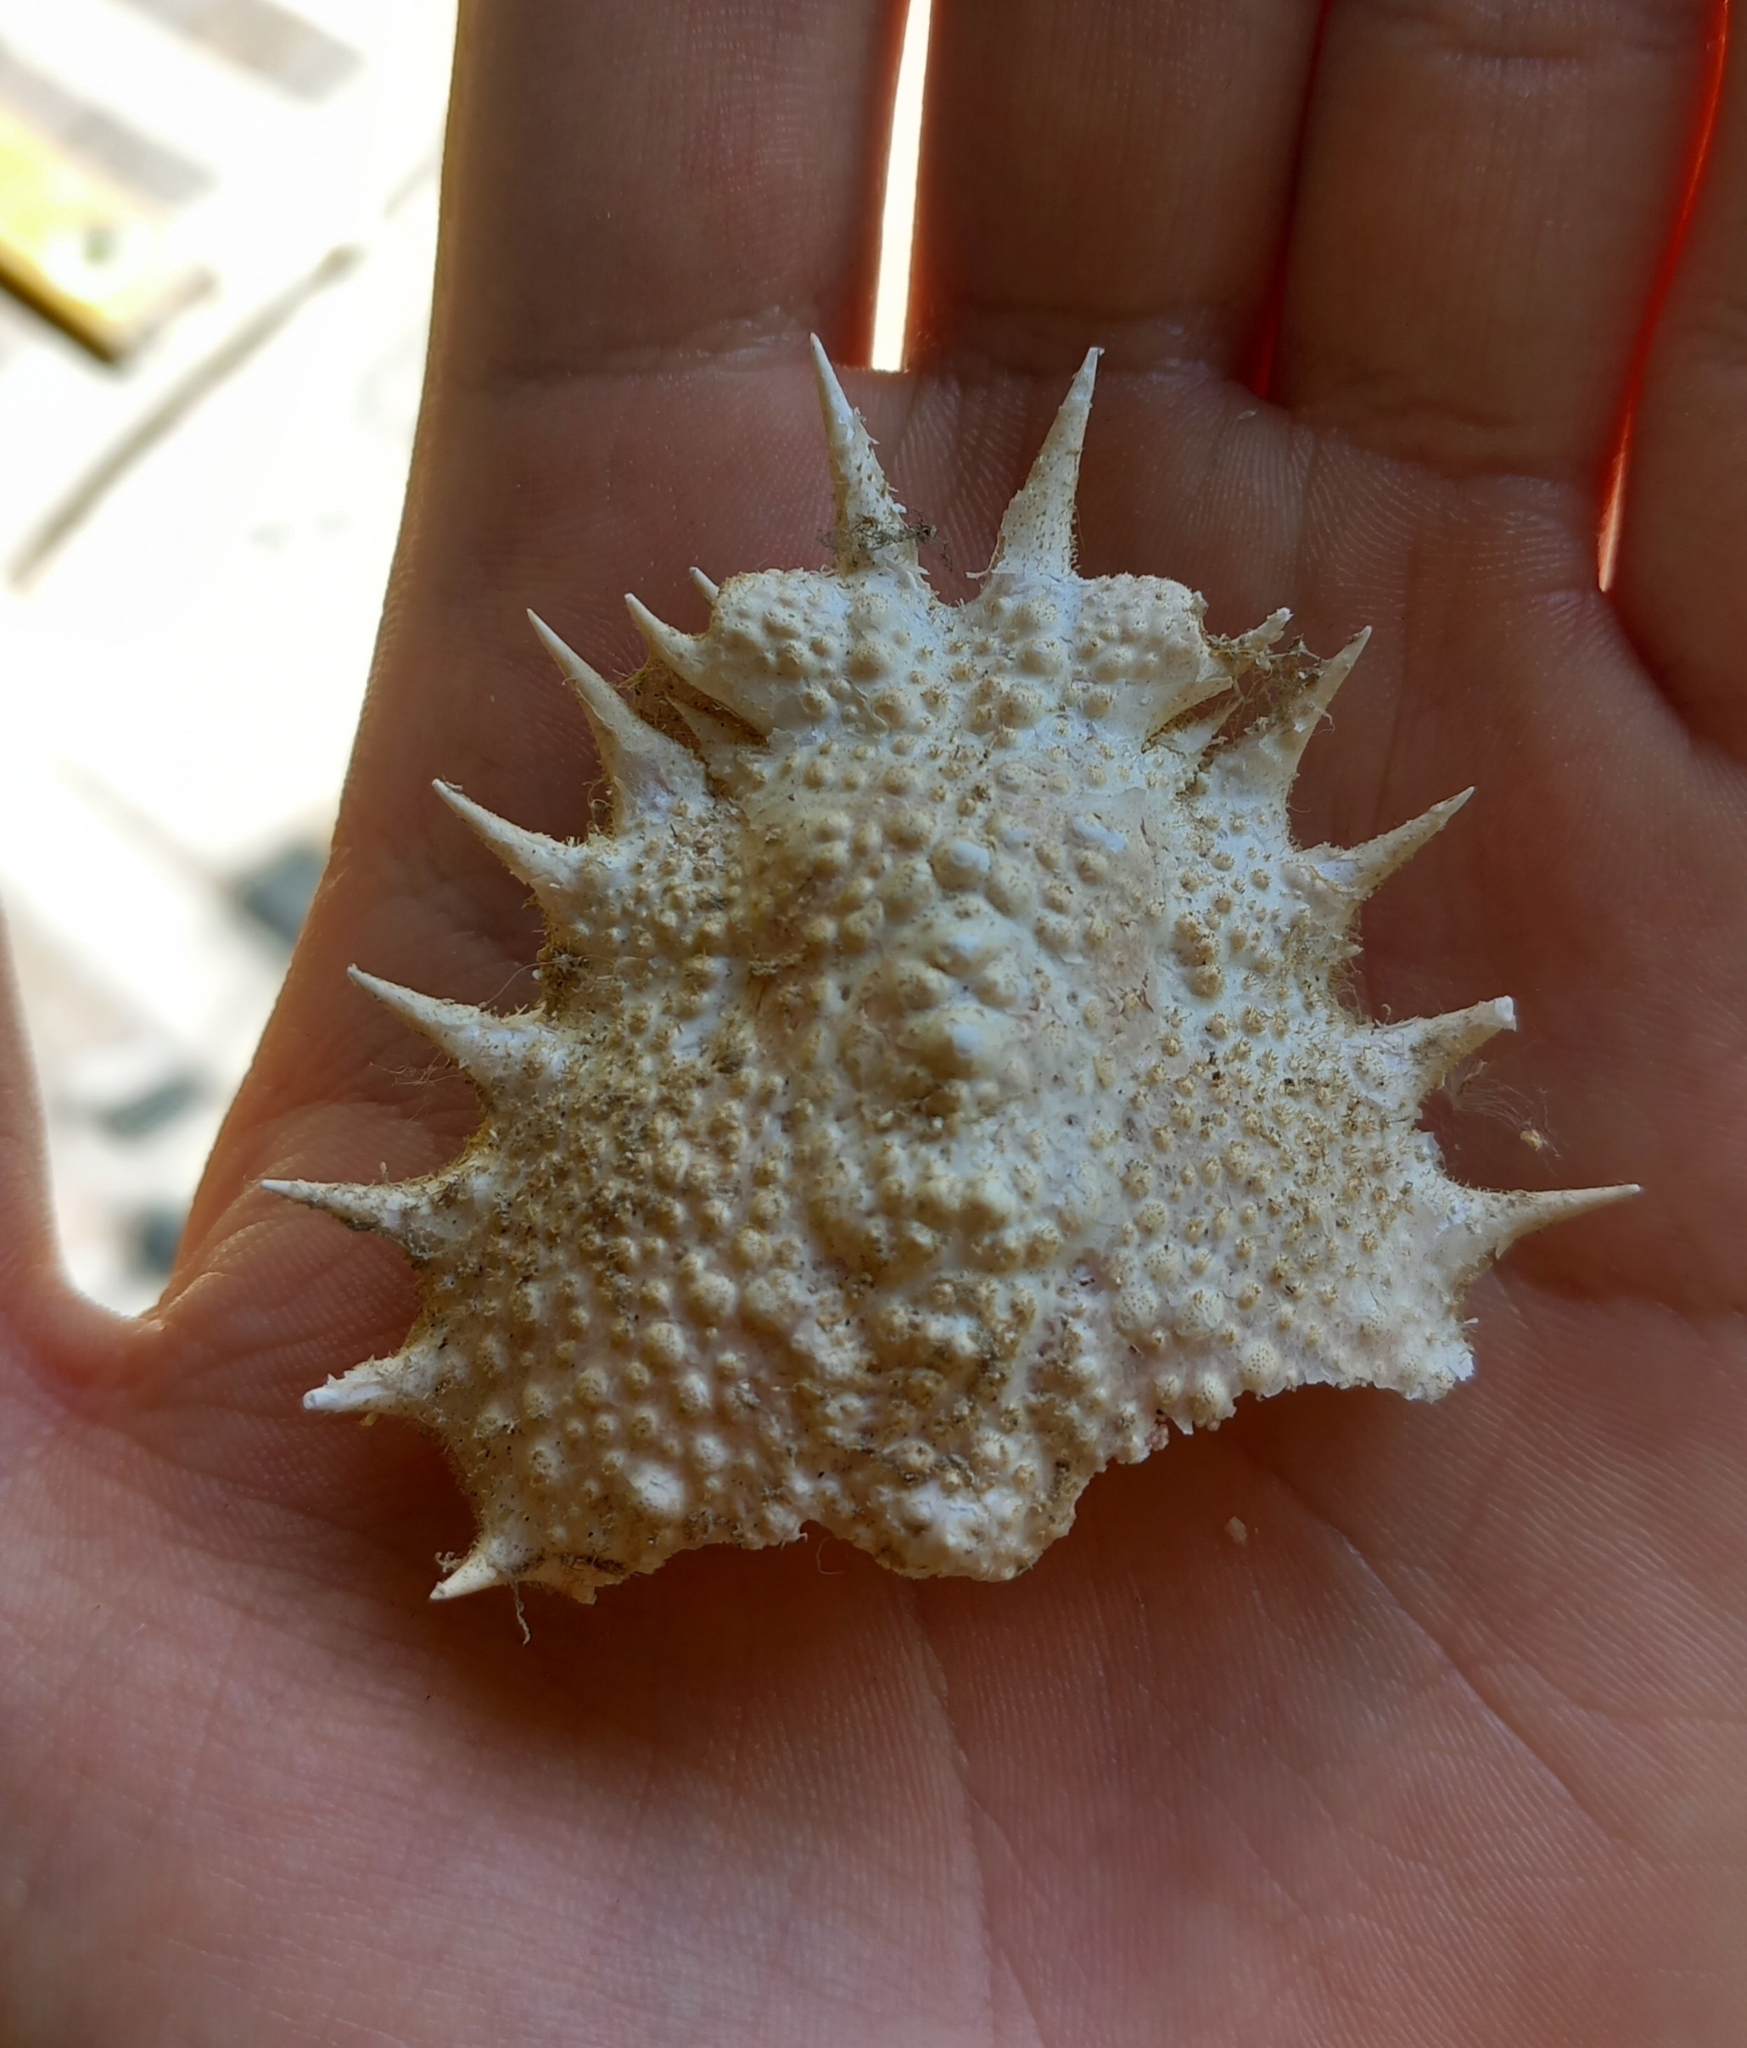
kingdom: Animalia
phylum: Arthropoda
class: Malacostraca
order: Decapoda
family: Majidae
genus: Maja
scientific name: Maja crispata
